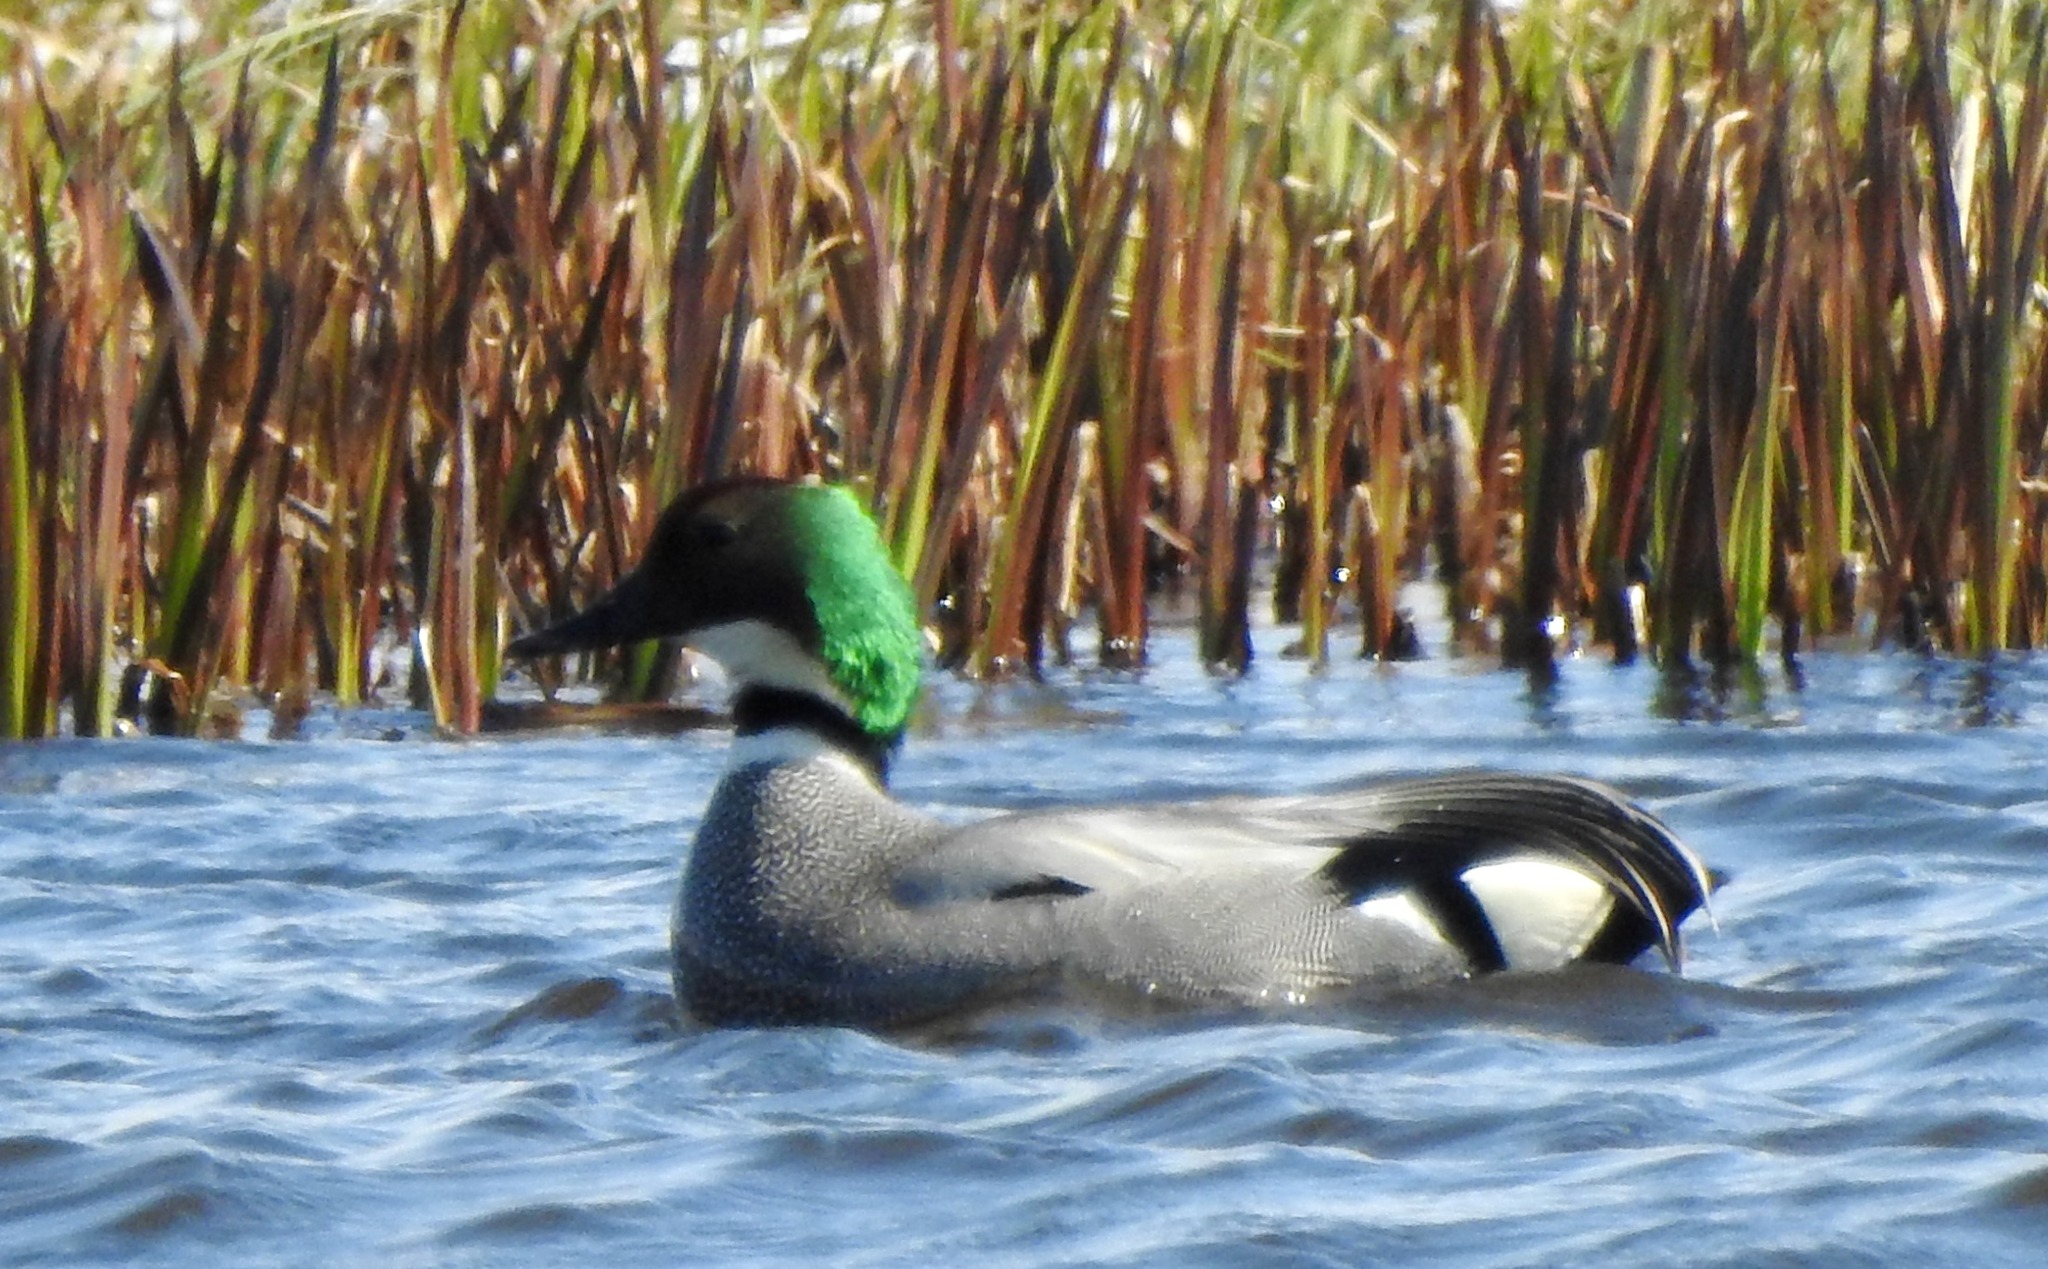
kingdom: Animalia
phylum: Chordata
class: Aves
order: Anseriformes
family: Anatidae
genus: Mareca
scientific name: Mareca falcata
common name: Falcated duck
